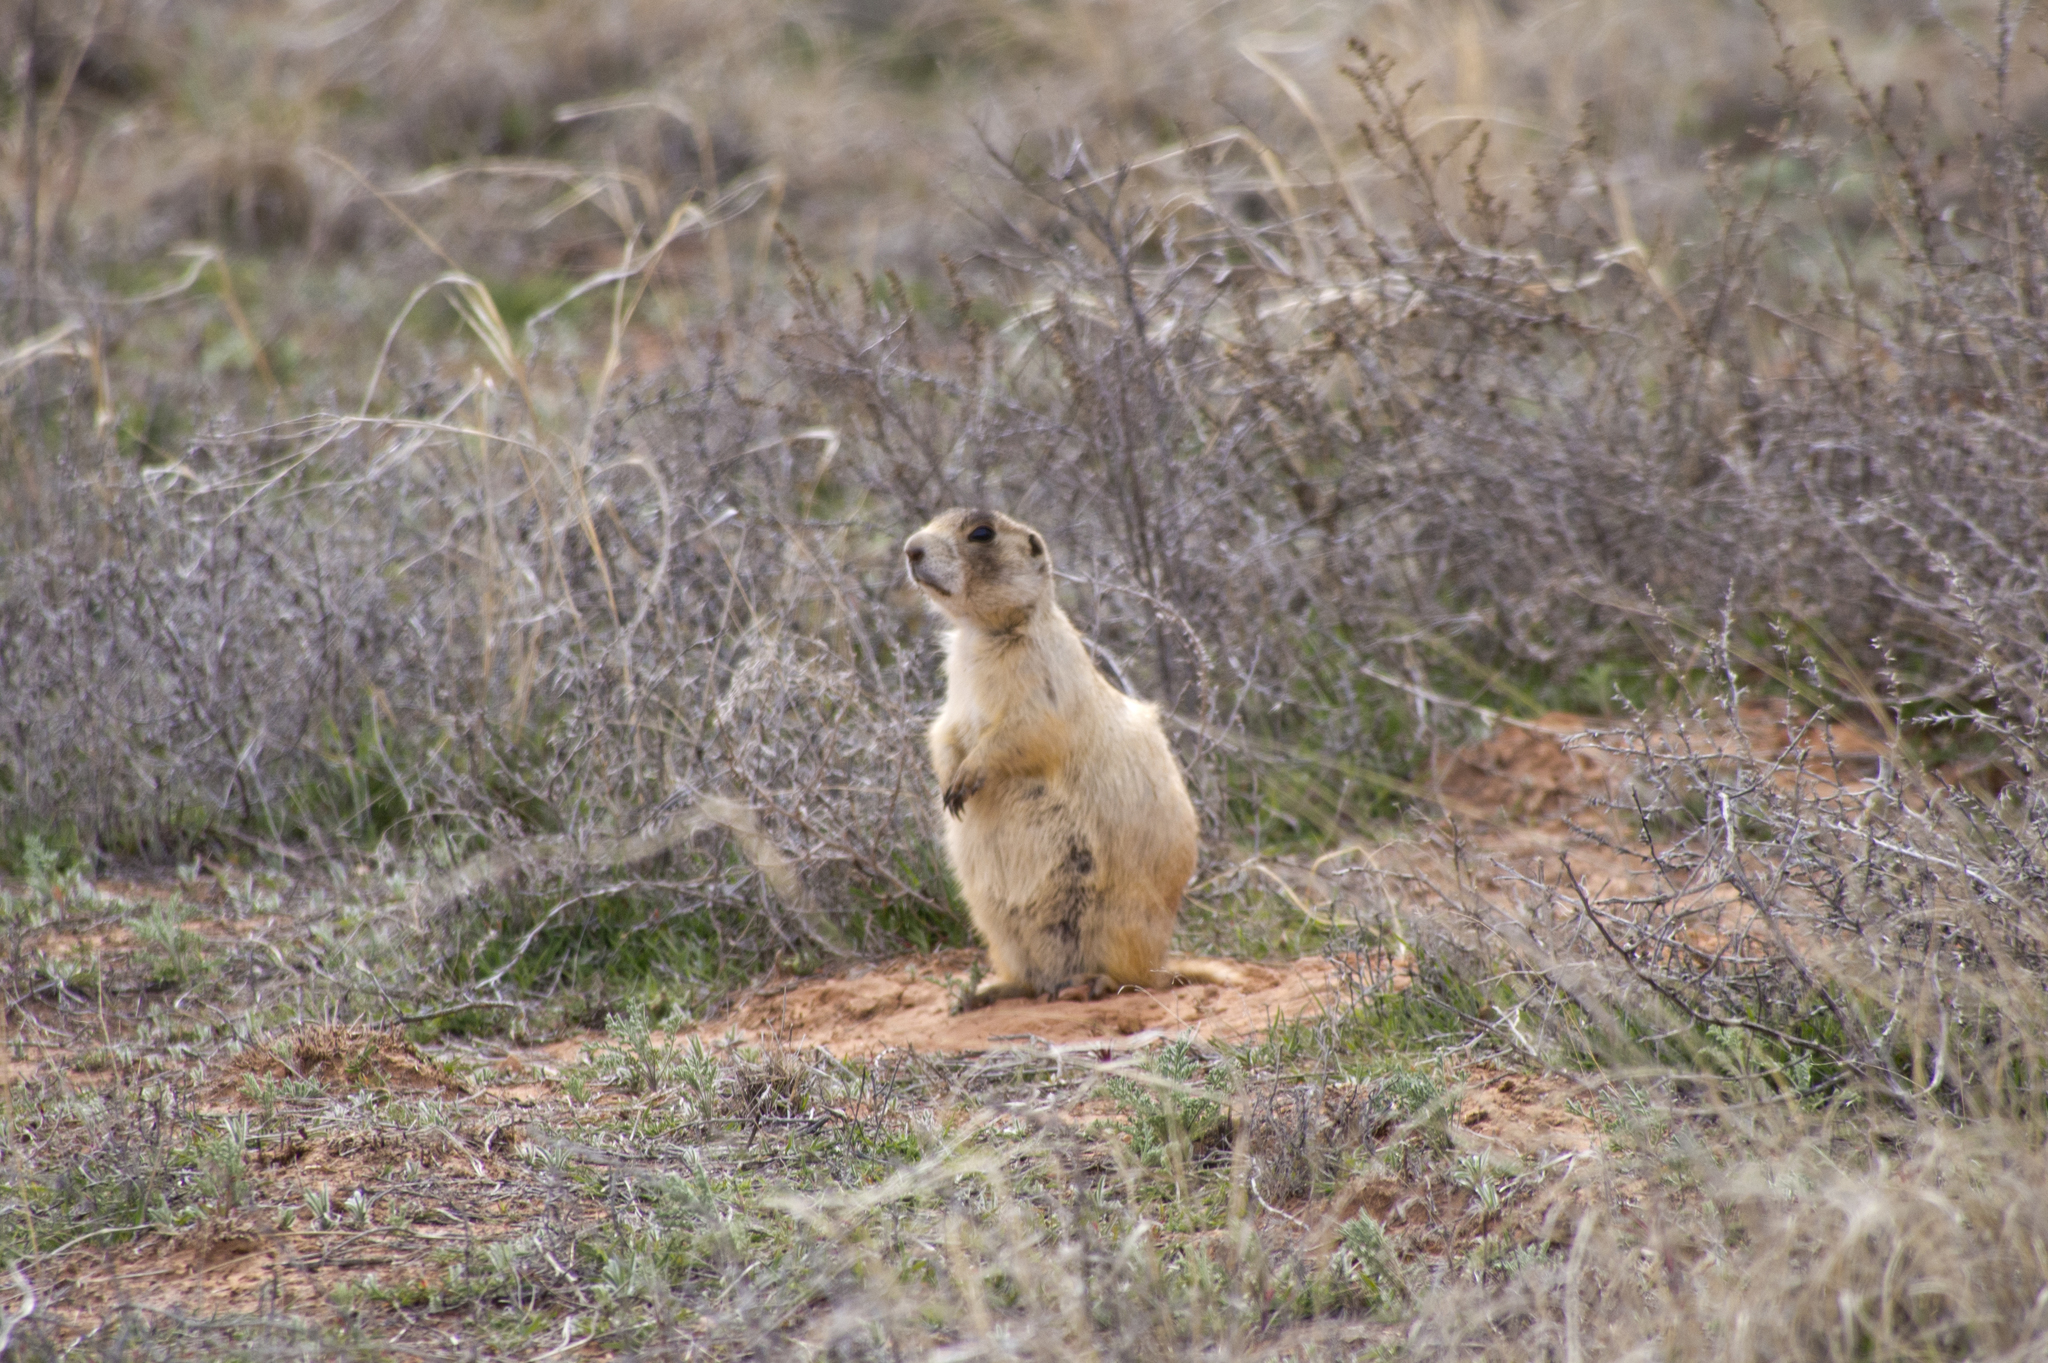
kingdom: Animalia
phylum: Chordata
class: Mammalia
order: Rodentia
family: Sciuridae
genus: Cynomys
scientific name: Cynomys leucurus
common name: White-tailed prairie dog
